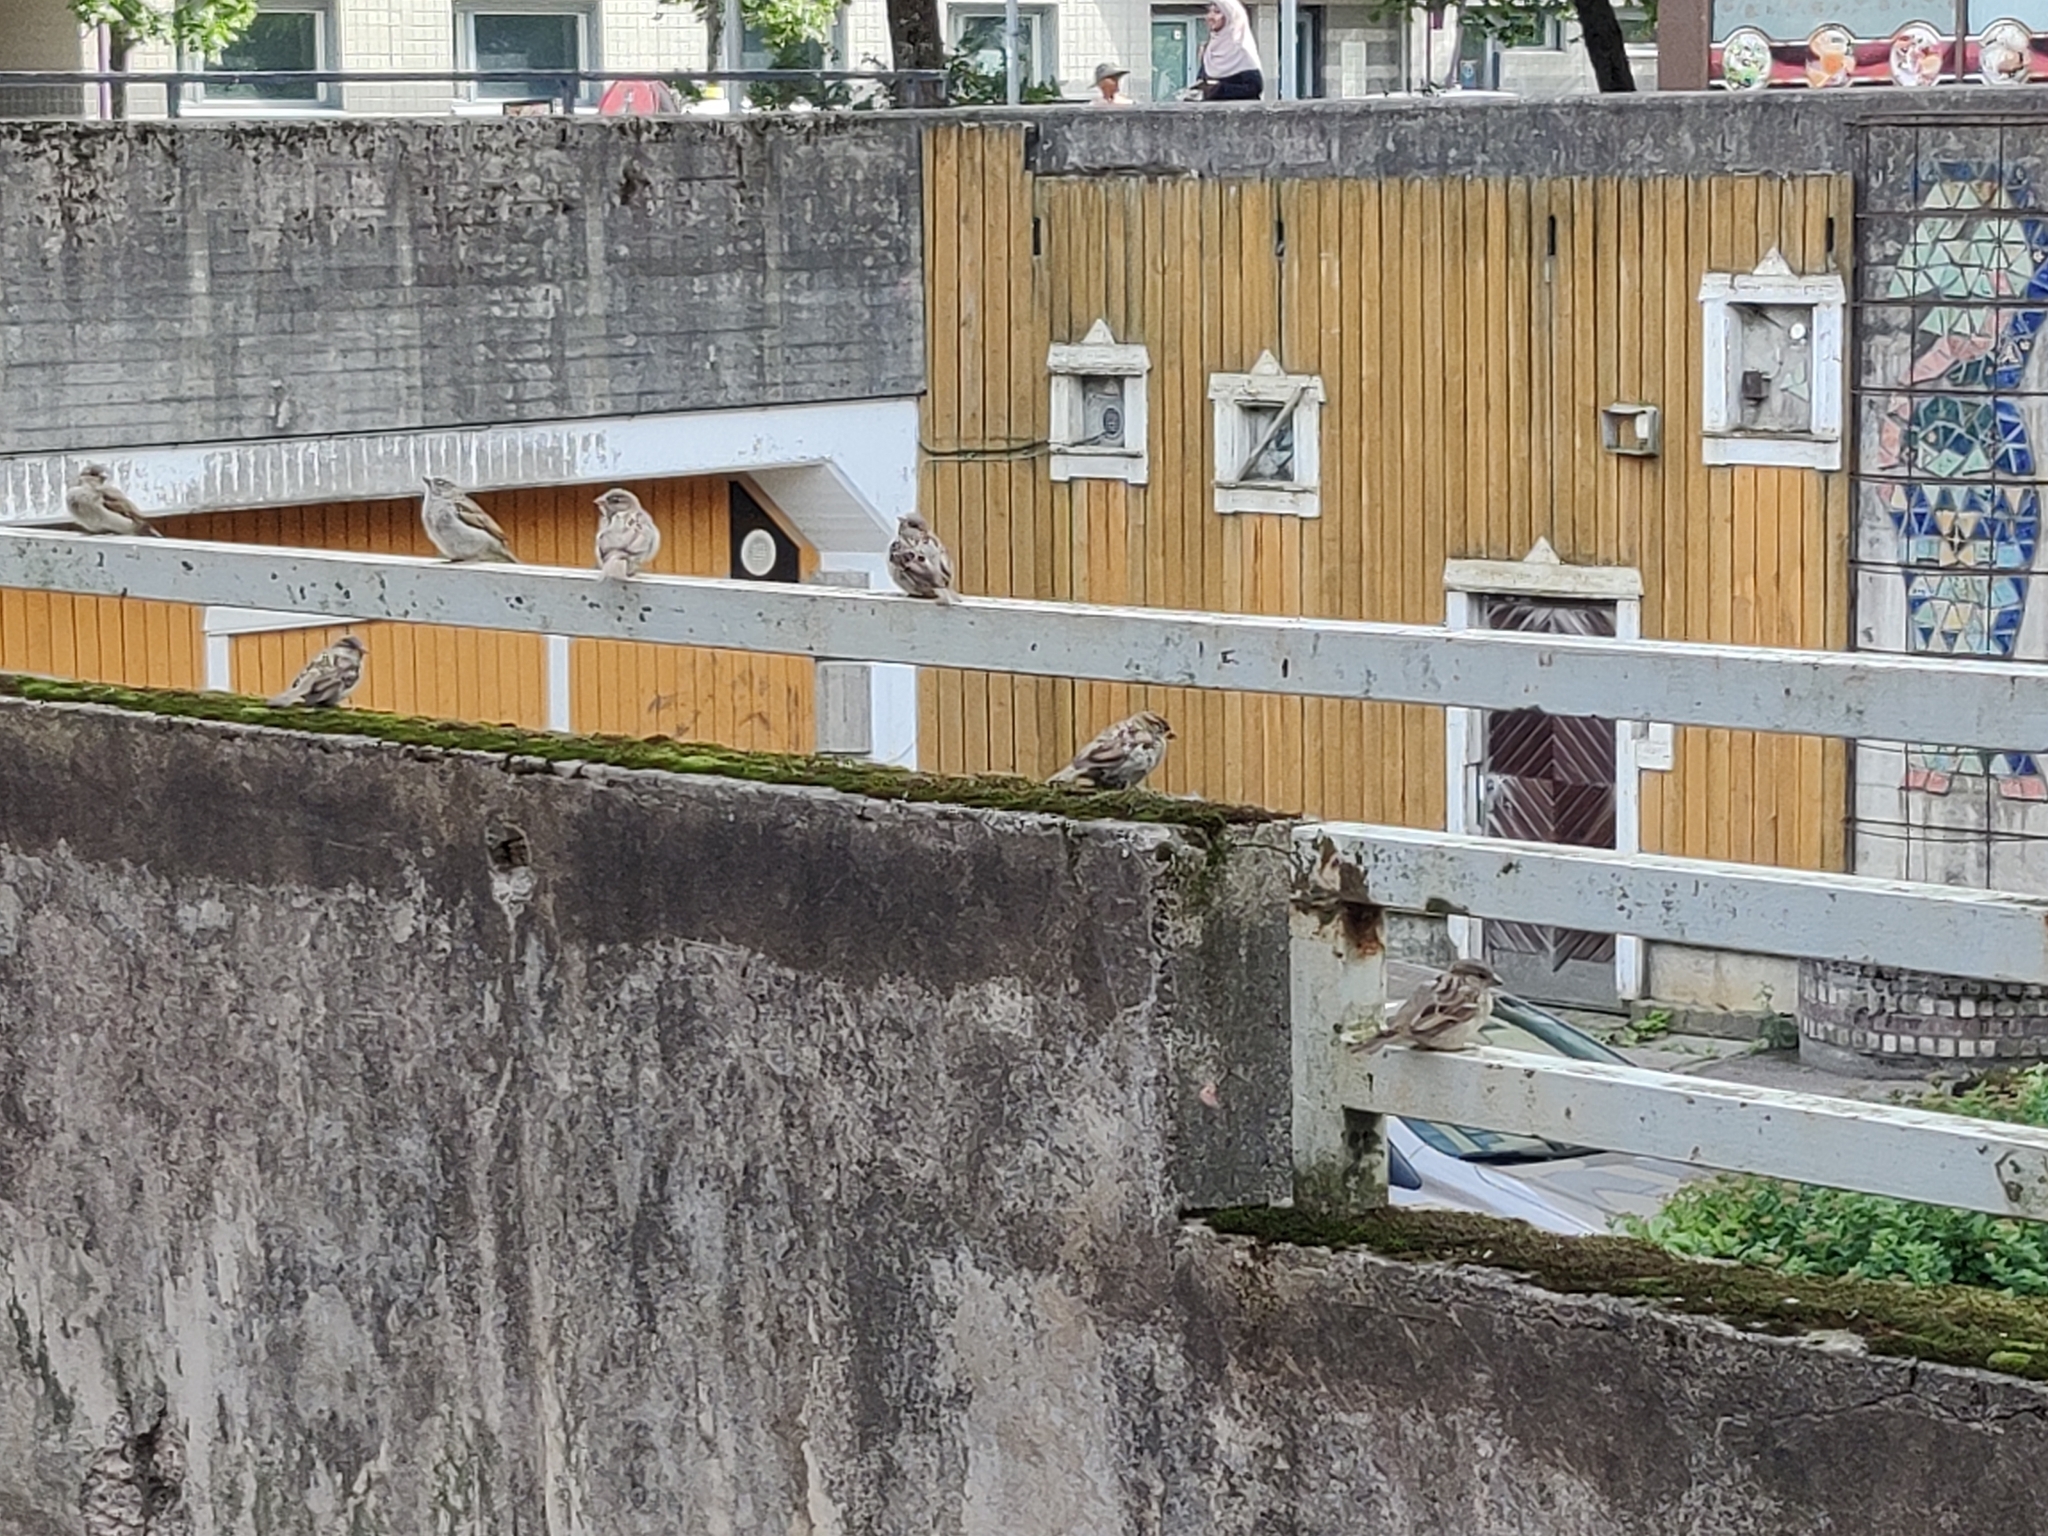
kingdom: Animalia
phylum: Chordata
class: Aves
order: Passeriformes
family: Passeridae
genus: Passer
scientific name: Passer domesticus
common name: House sparrow
